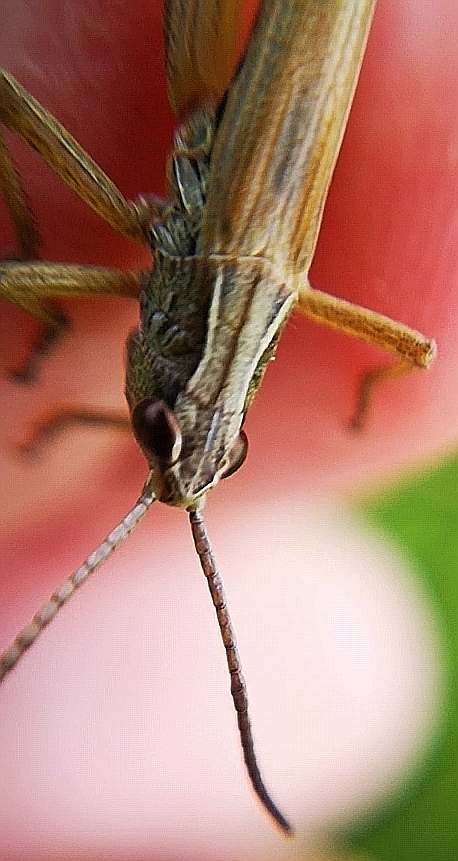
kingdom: Animalia
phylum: Arthropoda
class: Insecta
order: Orthoptera
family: Acrididae
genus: Pseudochorthippus
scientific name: Pseudochorthippus parallelus
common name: Meadow grasshopper
